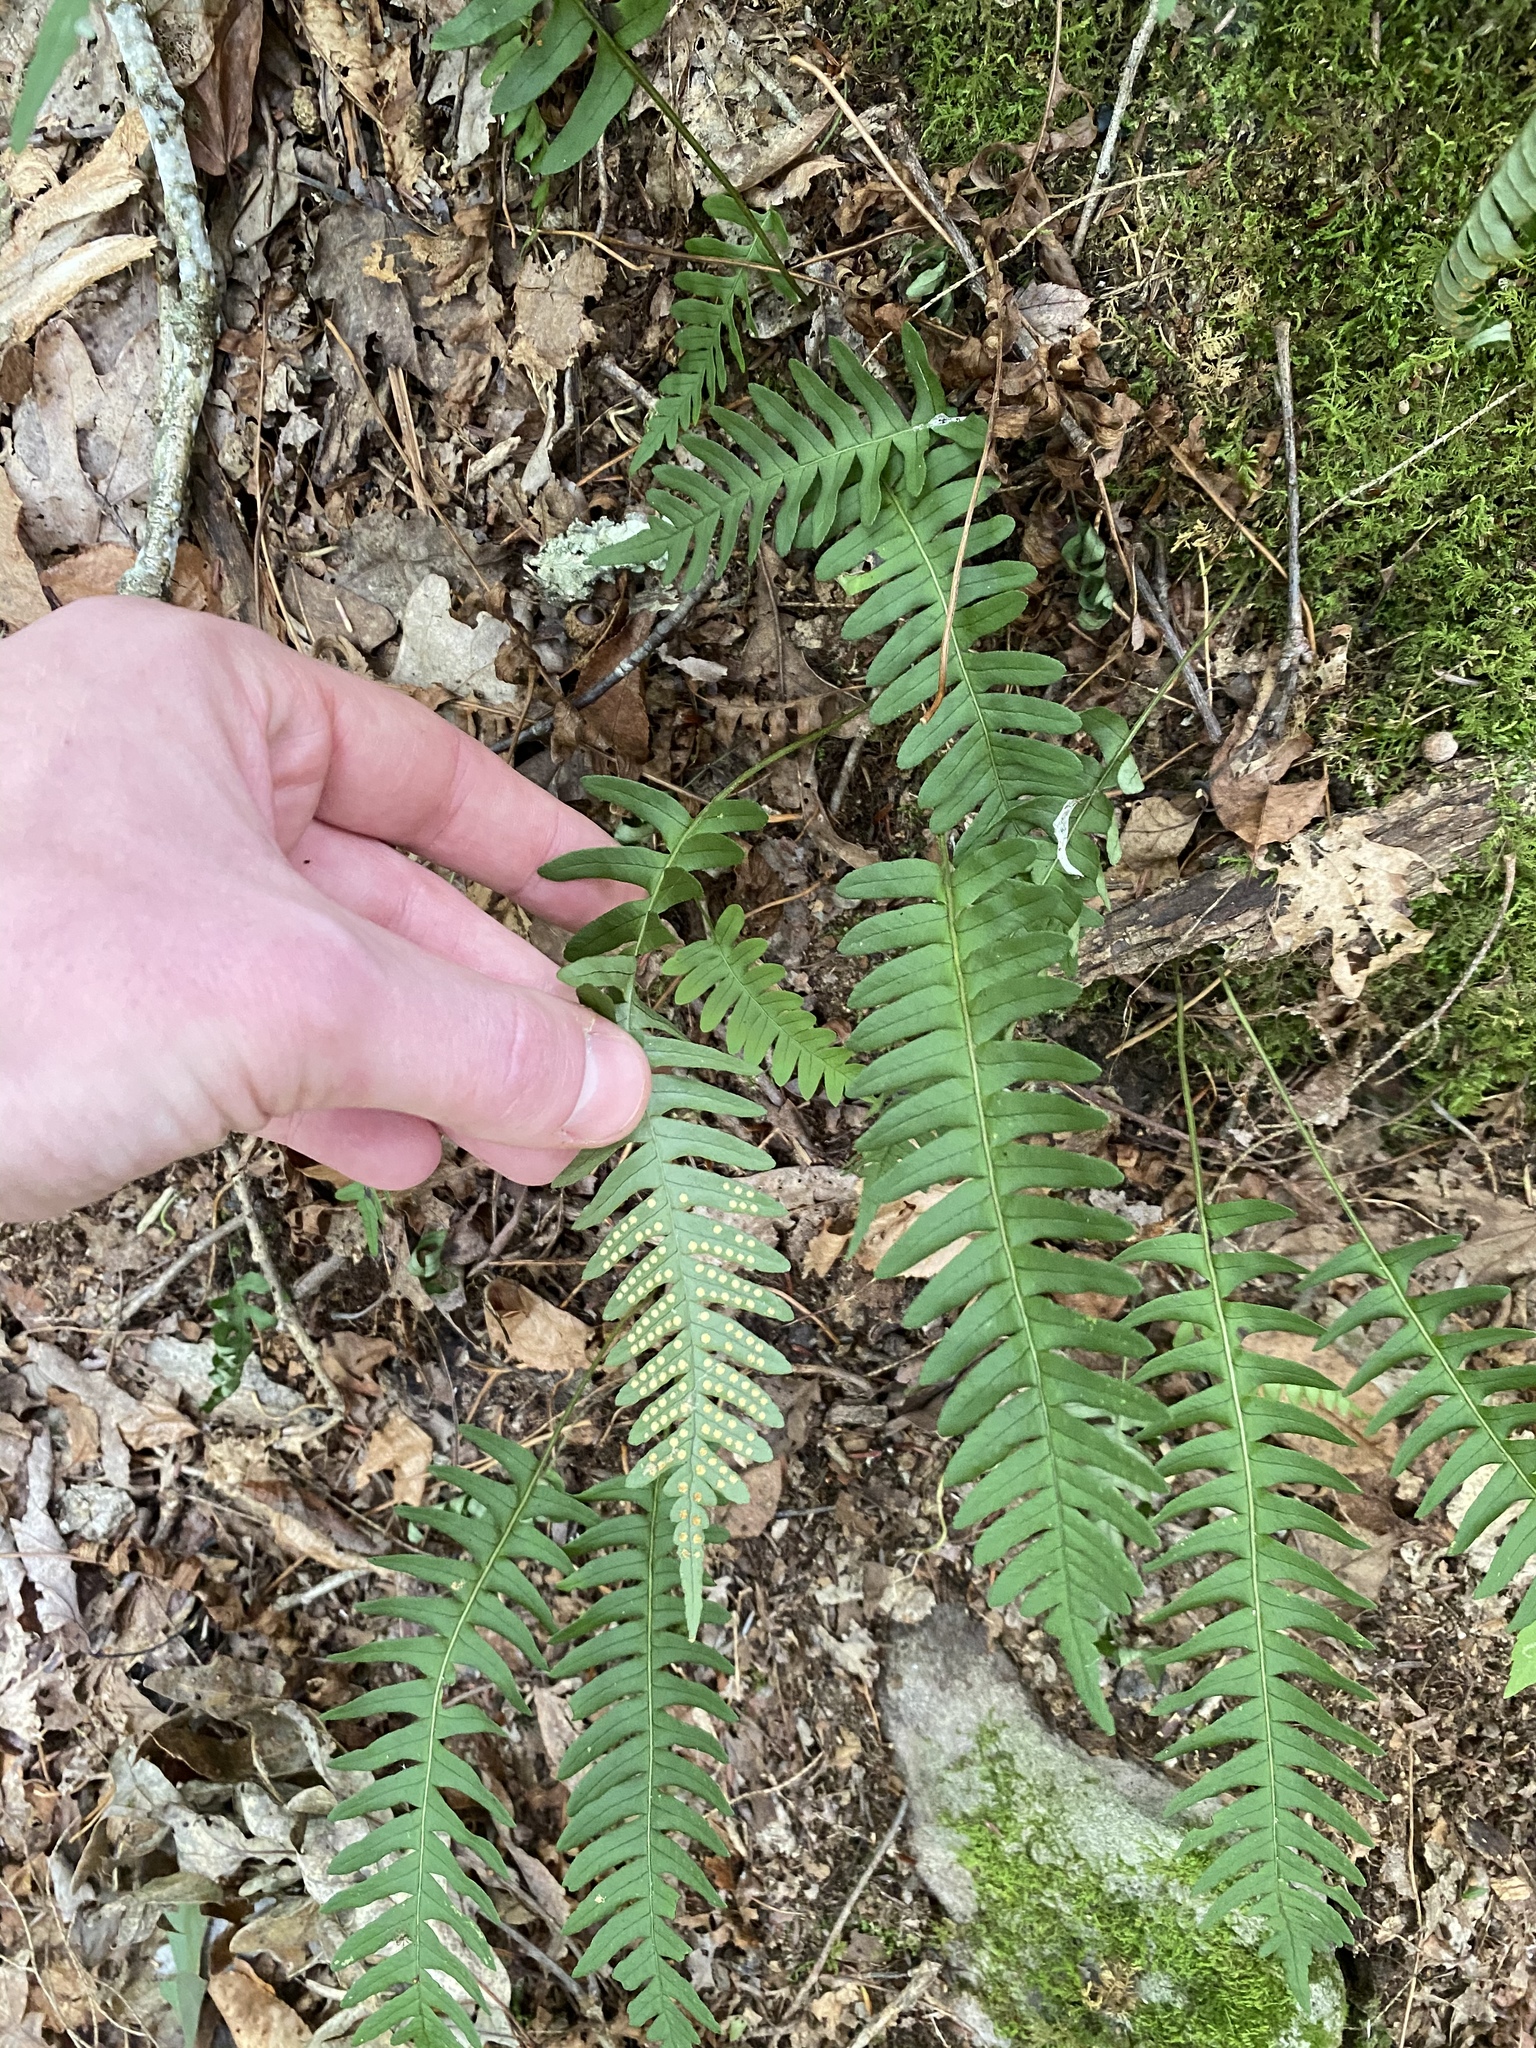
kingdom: Plantae
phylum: Tracheophyta
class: Polypodiopsida
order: Polypodiales
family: Polypodiaceae
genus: Polypodium
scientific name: Polypodium virginianum
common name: American wall fern
